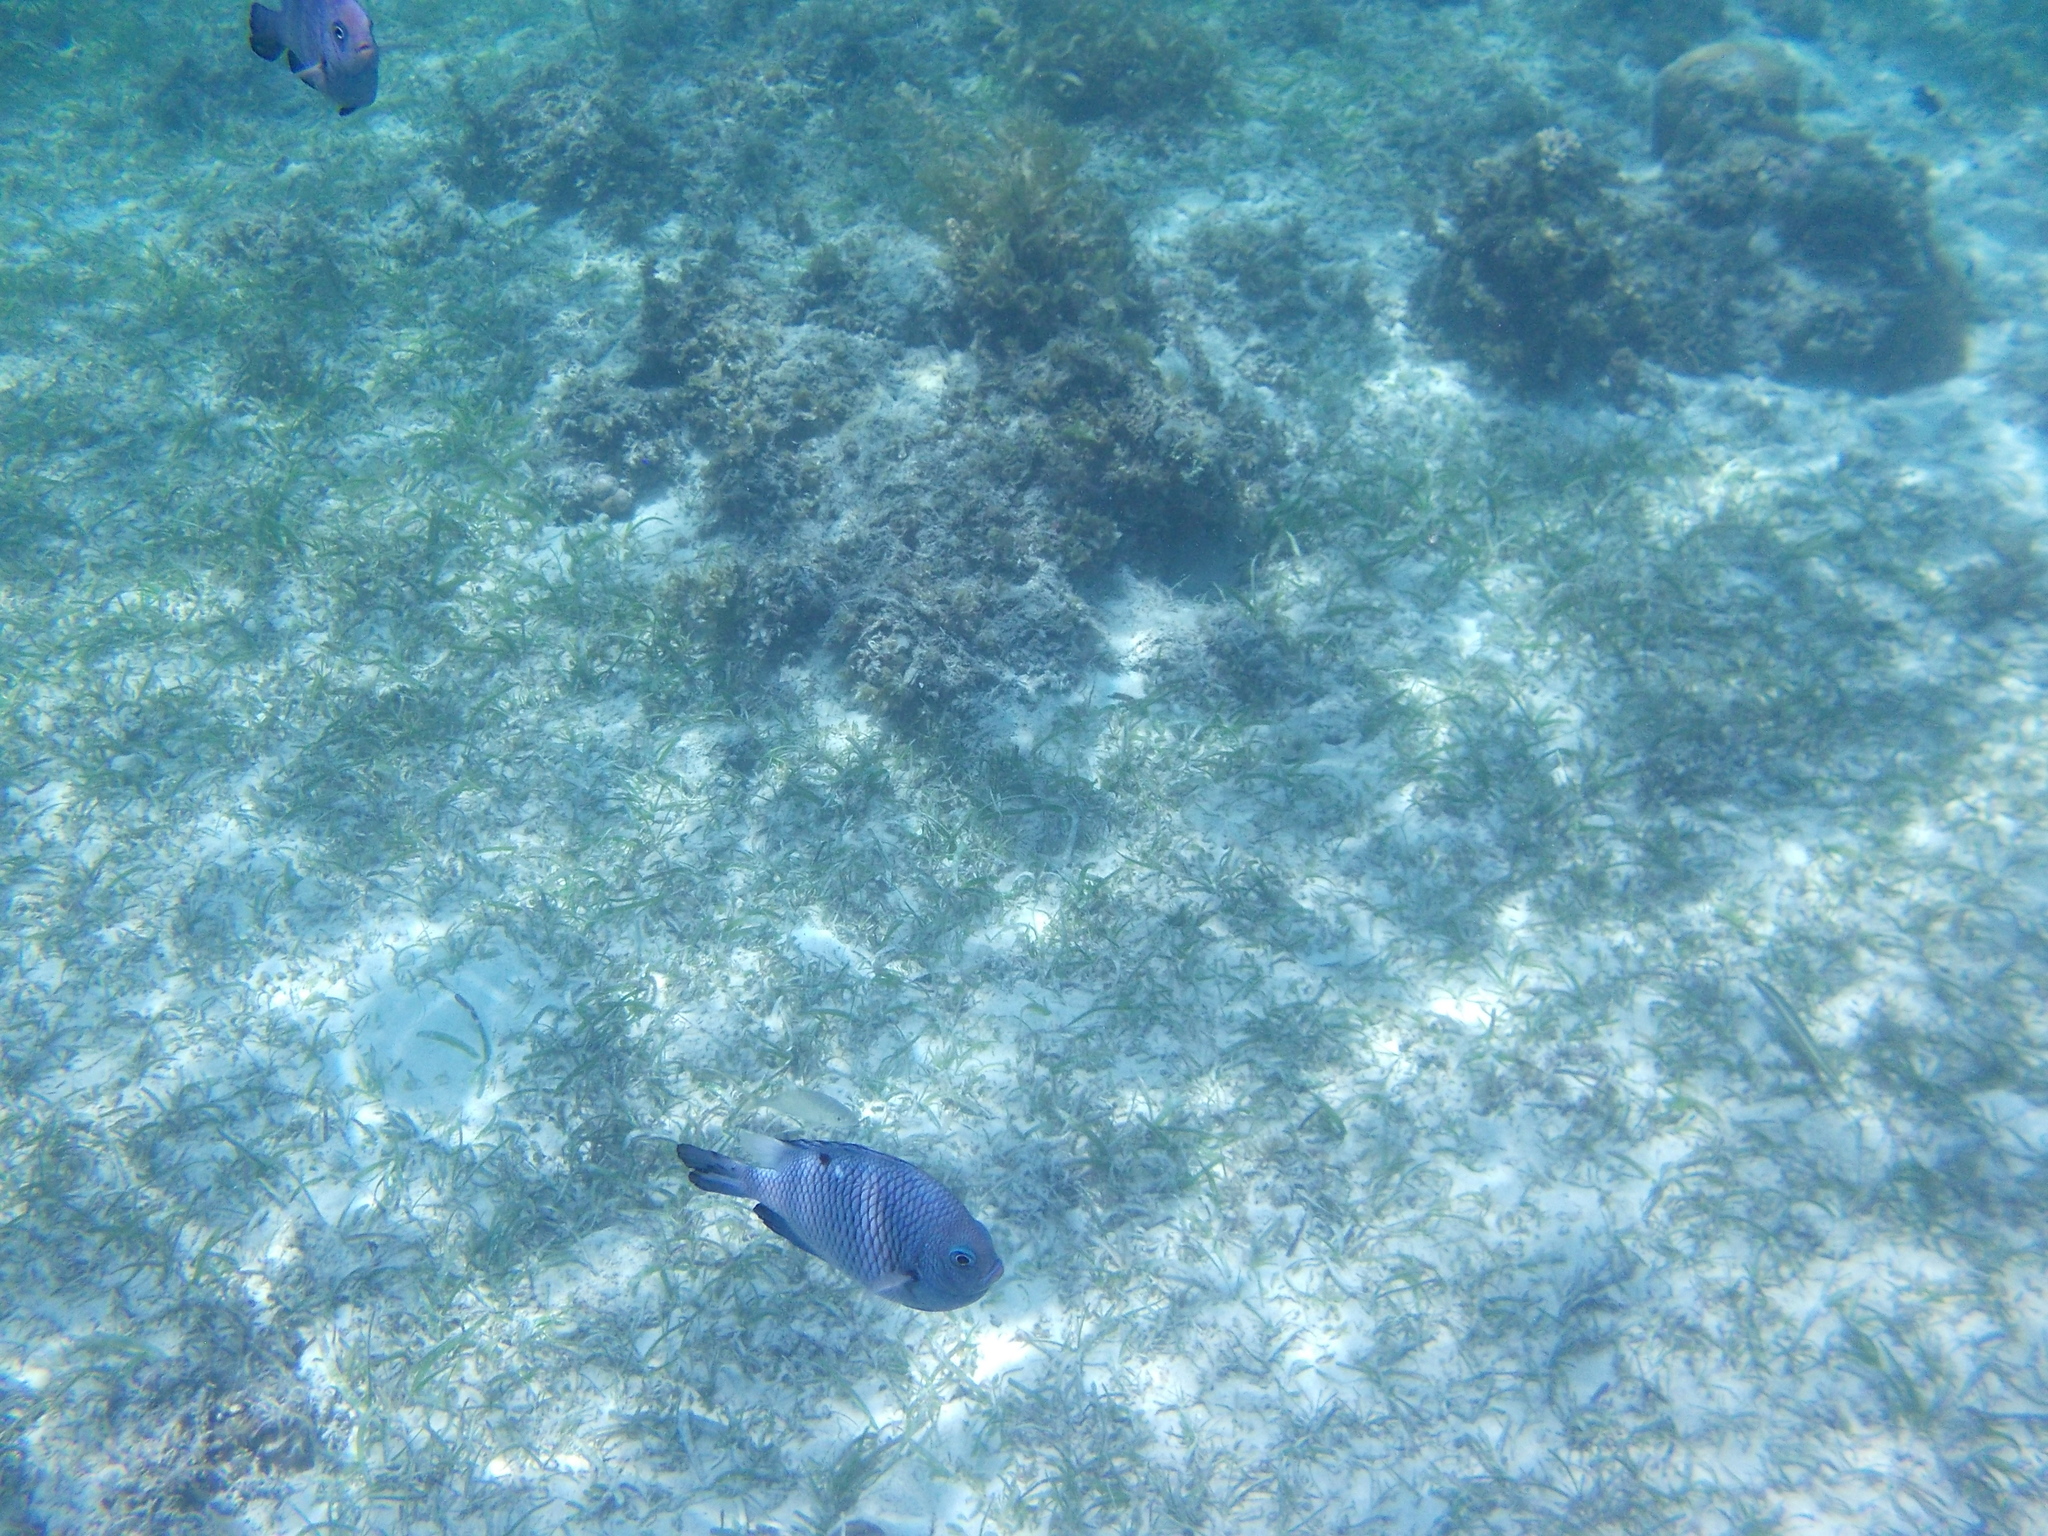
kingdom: Animalia
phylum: Chordata
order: Perciformes
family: Pomacentridae
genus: Dascyllus
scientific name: Dascyllus trimaculatus
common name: Threespot dascyllus
